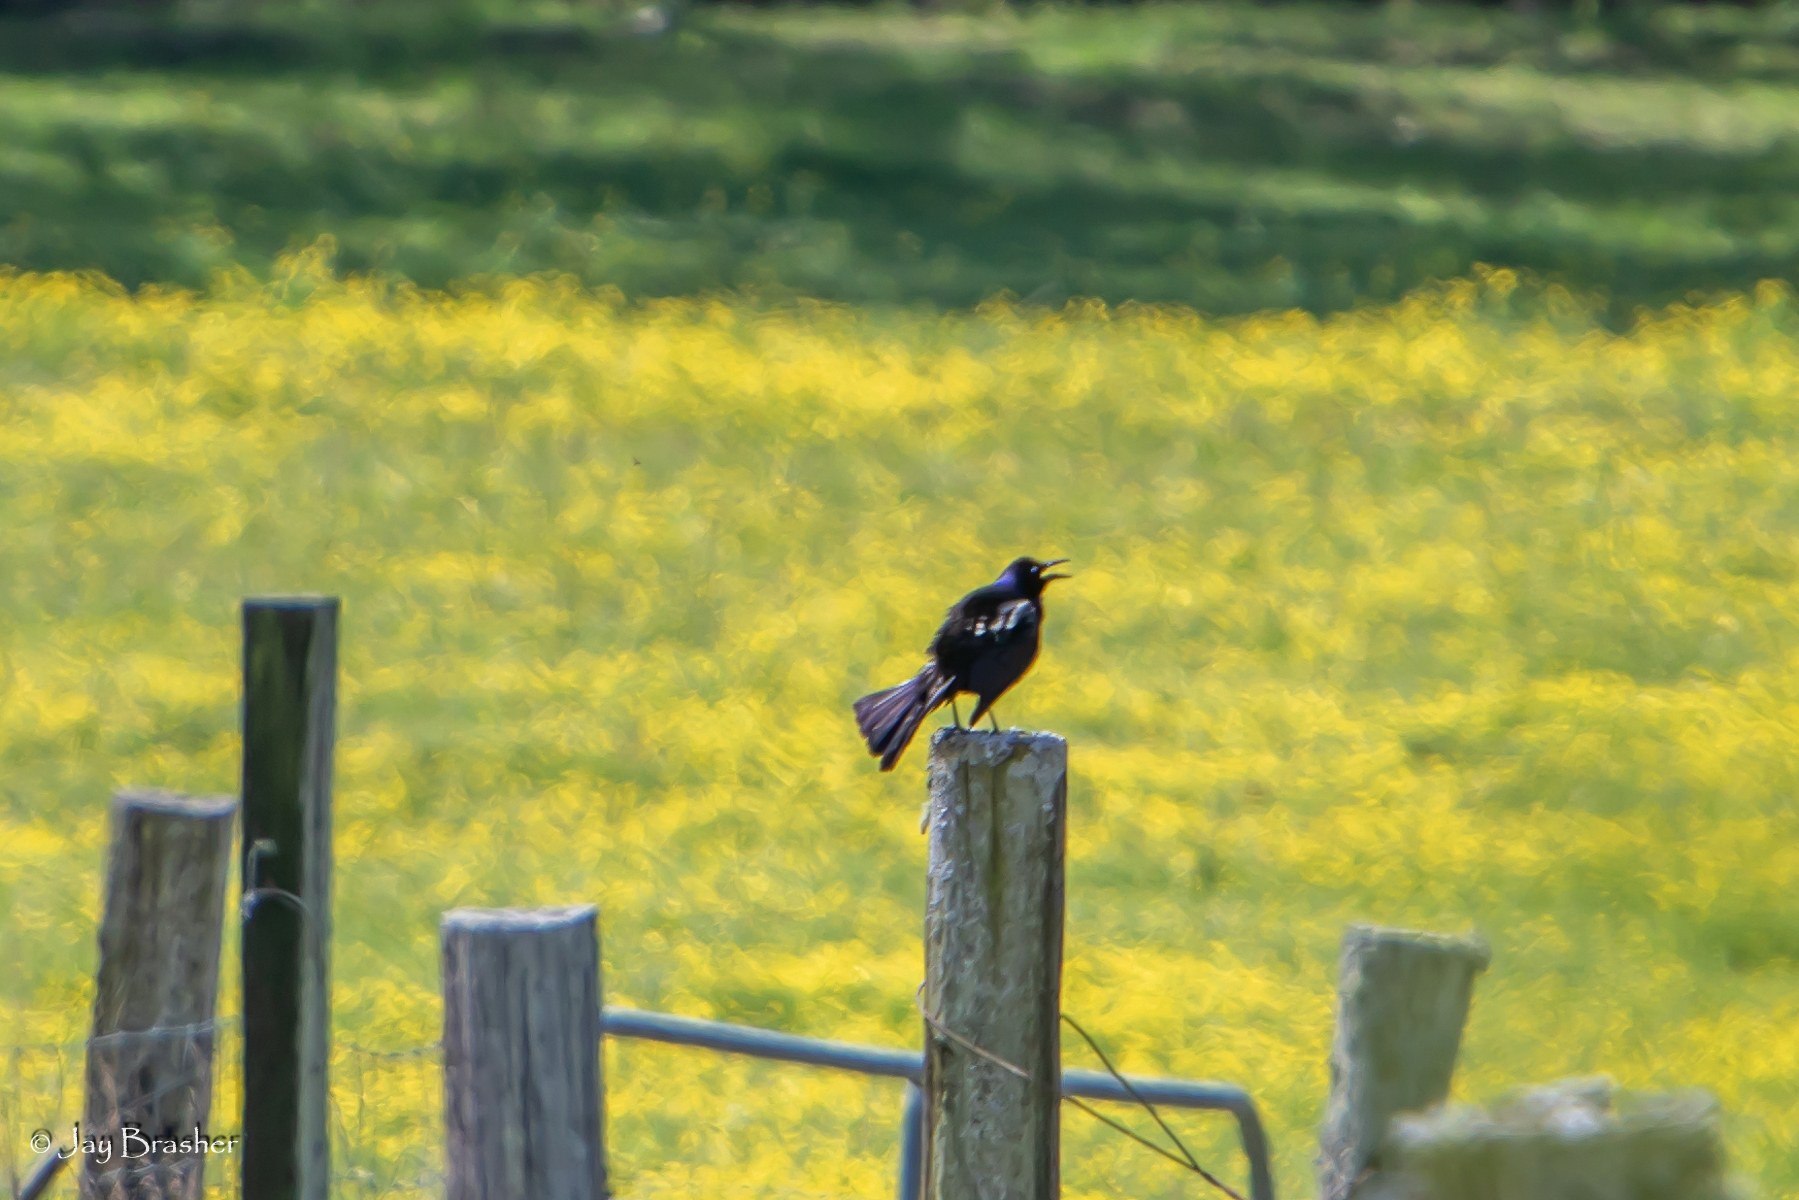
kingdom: Animalia
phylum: Chordata
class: Aves
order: Passeriformes
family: Icteridae
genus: Quiscalus
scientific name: Quiscalus quiscula
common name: Common grackle
